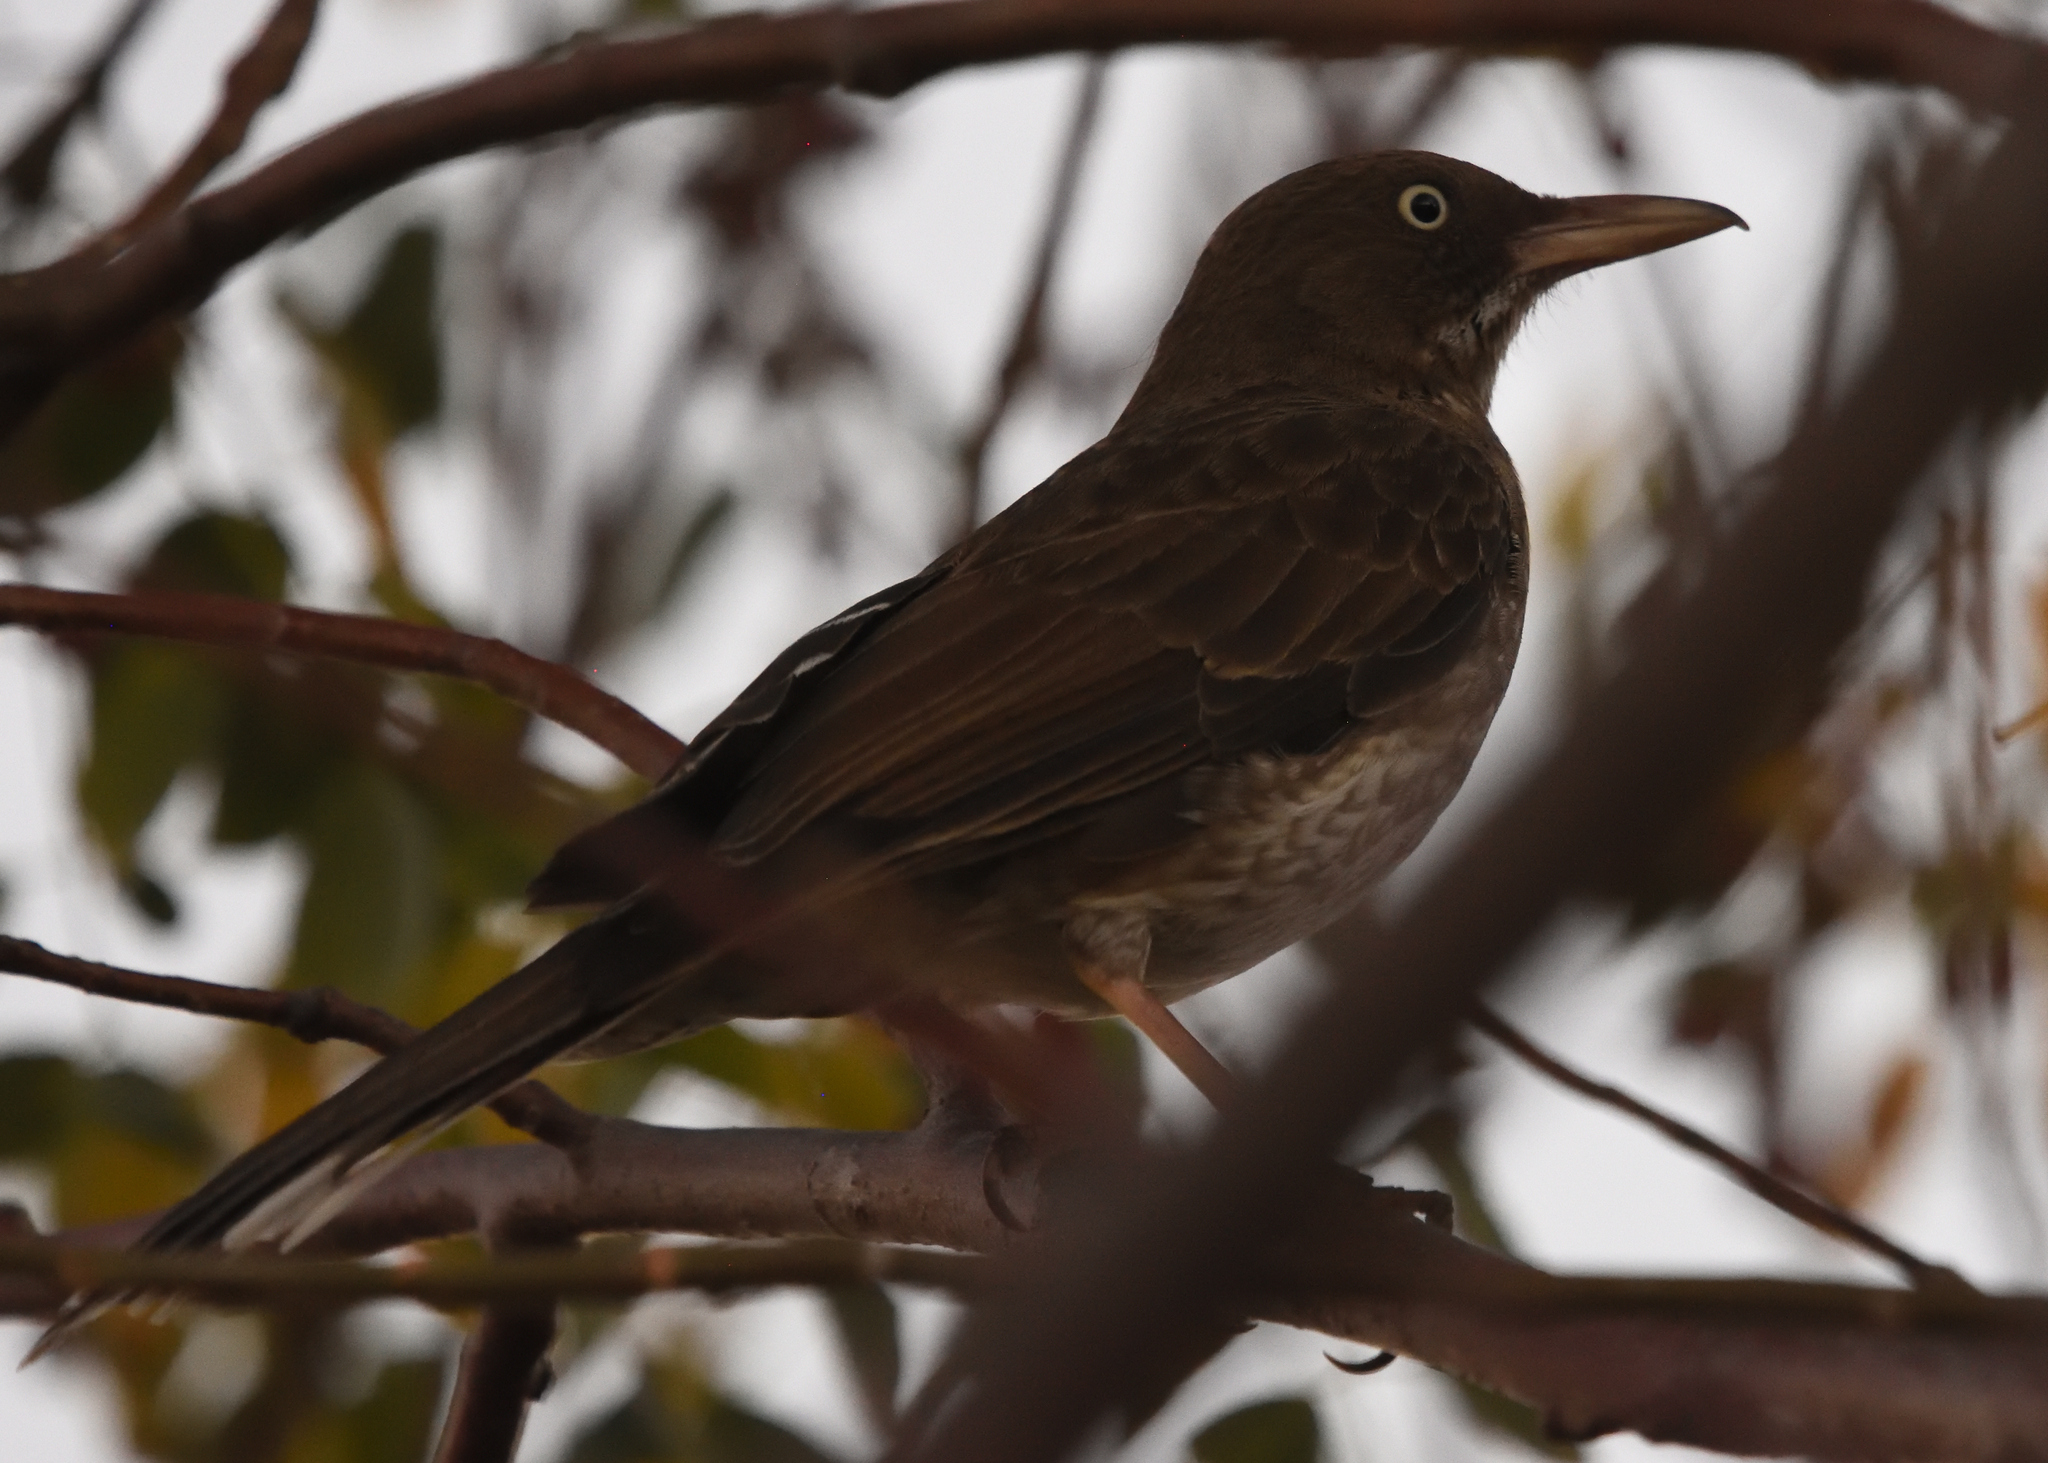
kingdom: Animalia
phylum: Chordata
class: Aves
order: Passeriformes
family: Mimidae
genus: Margarops
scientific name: Margarops fuscatus
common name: Pearly-eyed thrasher
